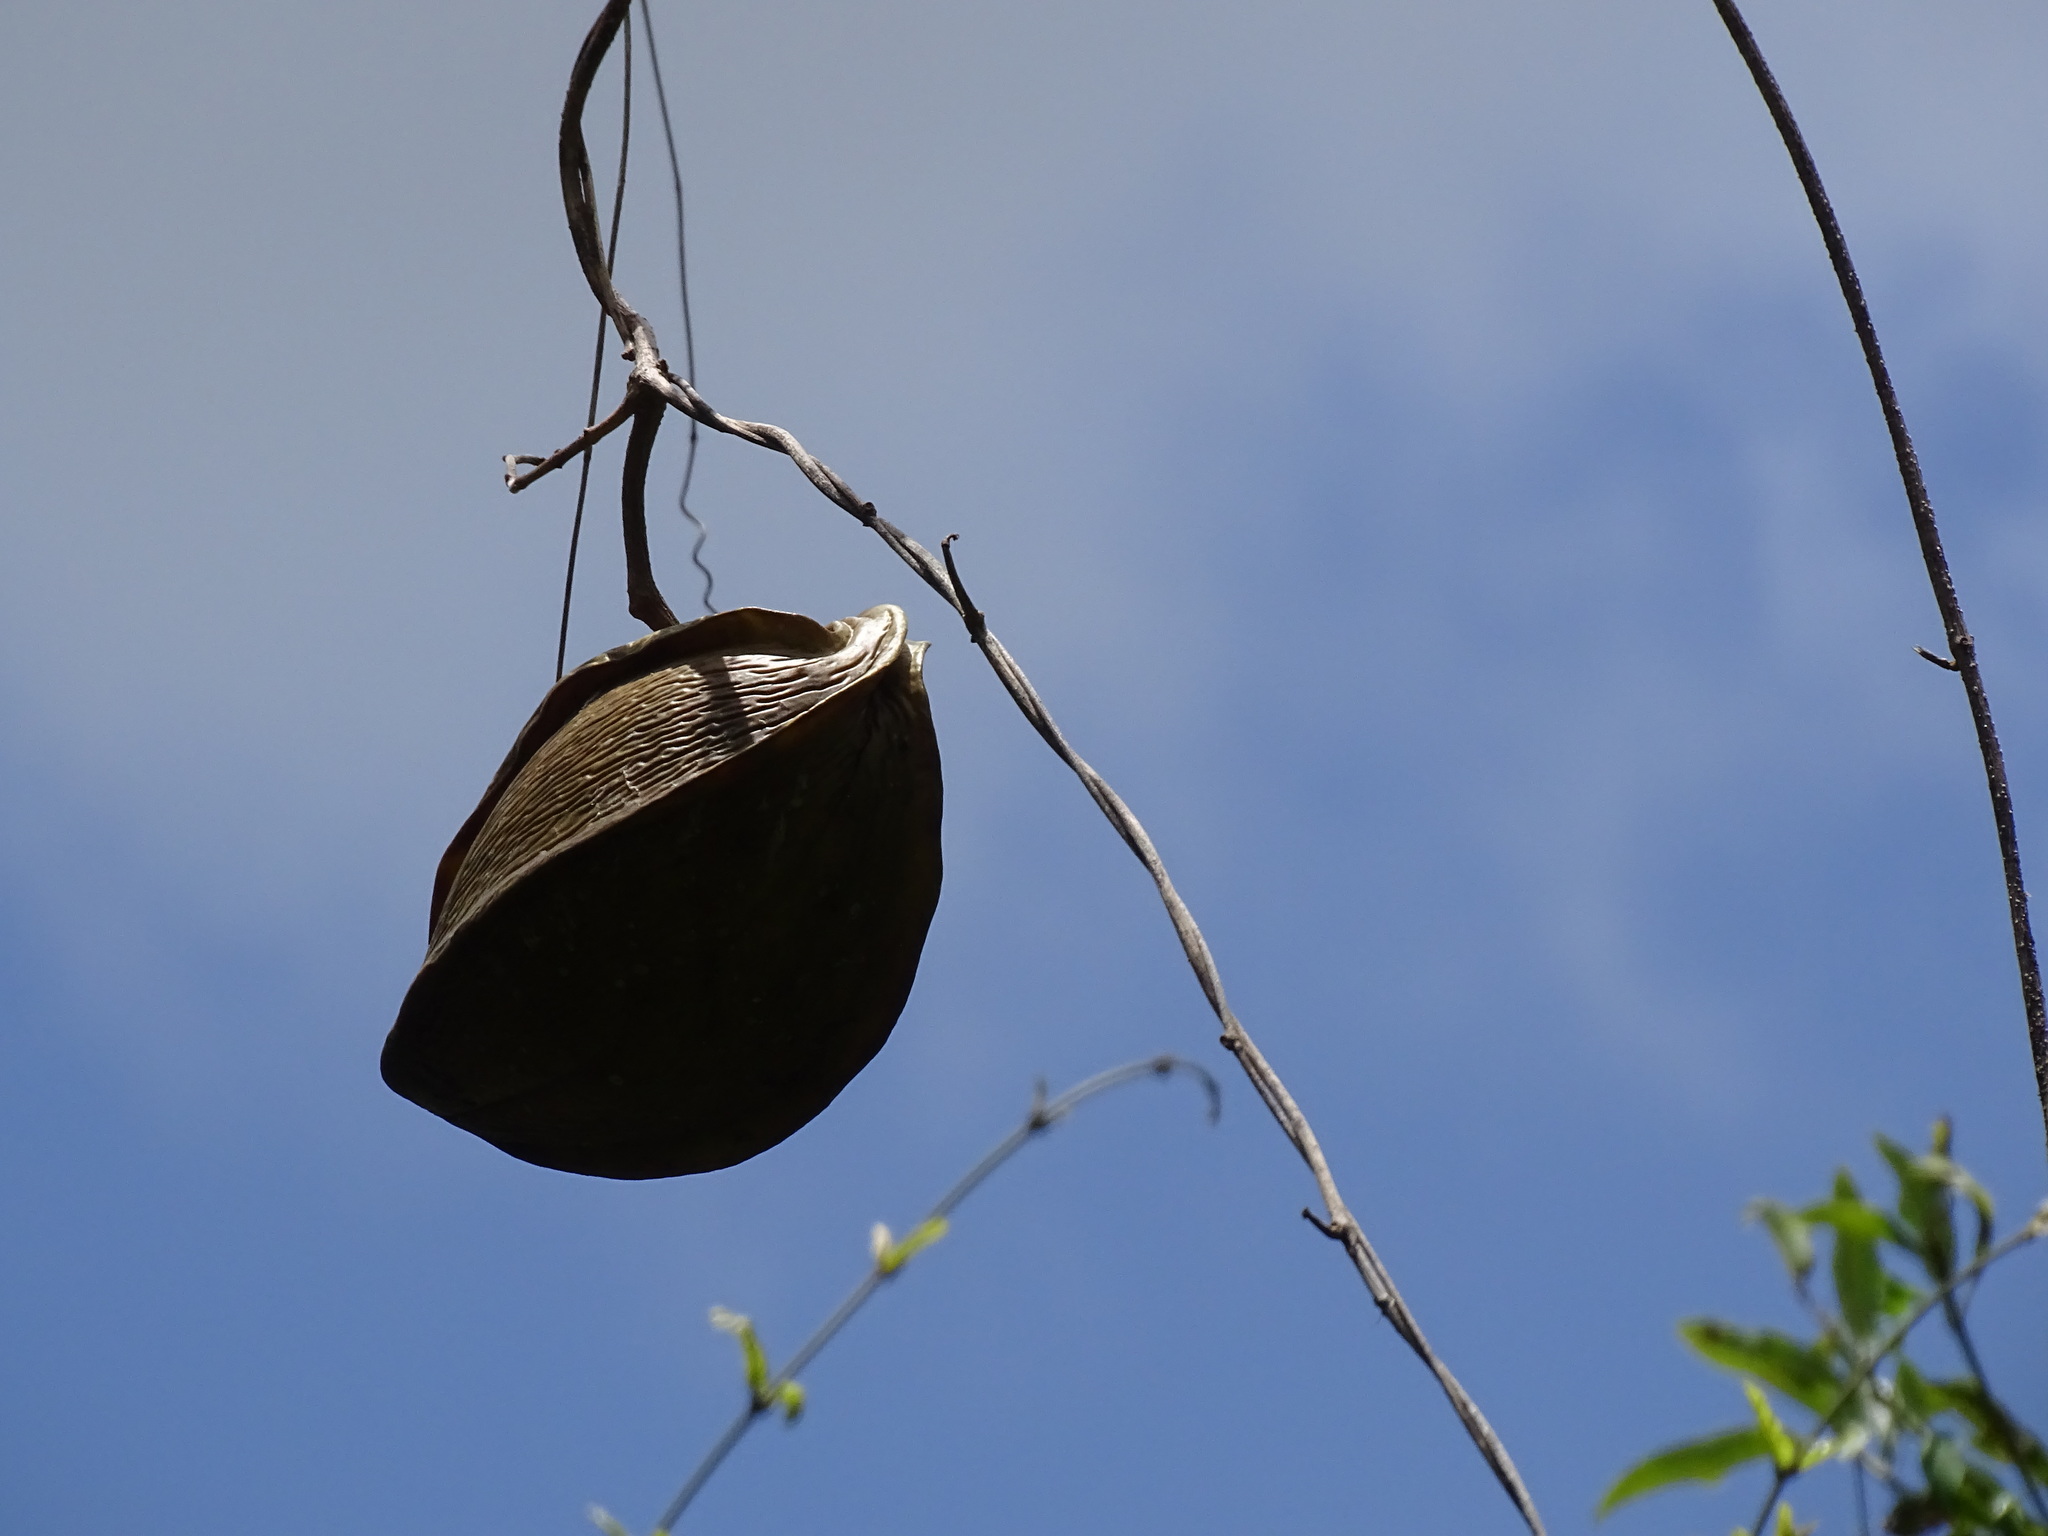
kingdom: Plantae
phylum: Tracheophyta
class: Magnoliopsida
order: Gentianales
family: Apocynaceae
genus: Gonolobus
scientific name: Gonolobus fraternus
